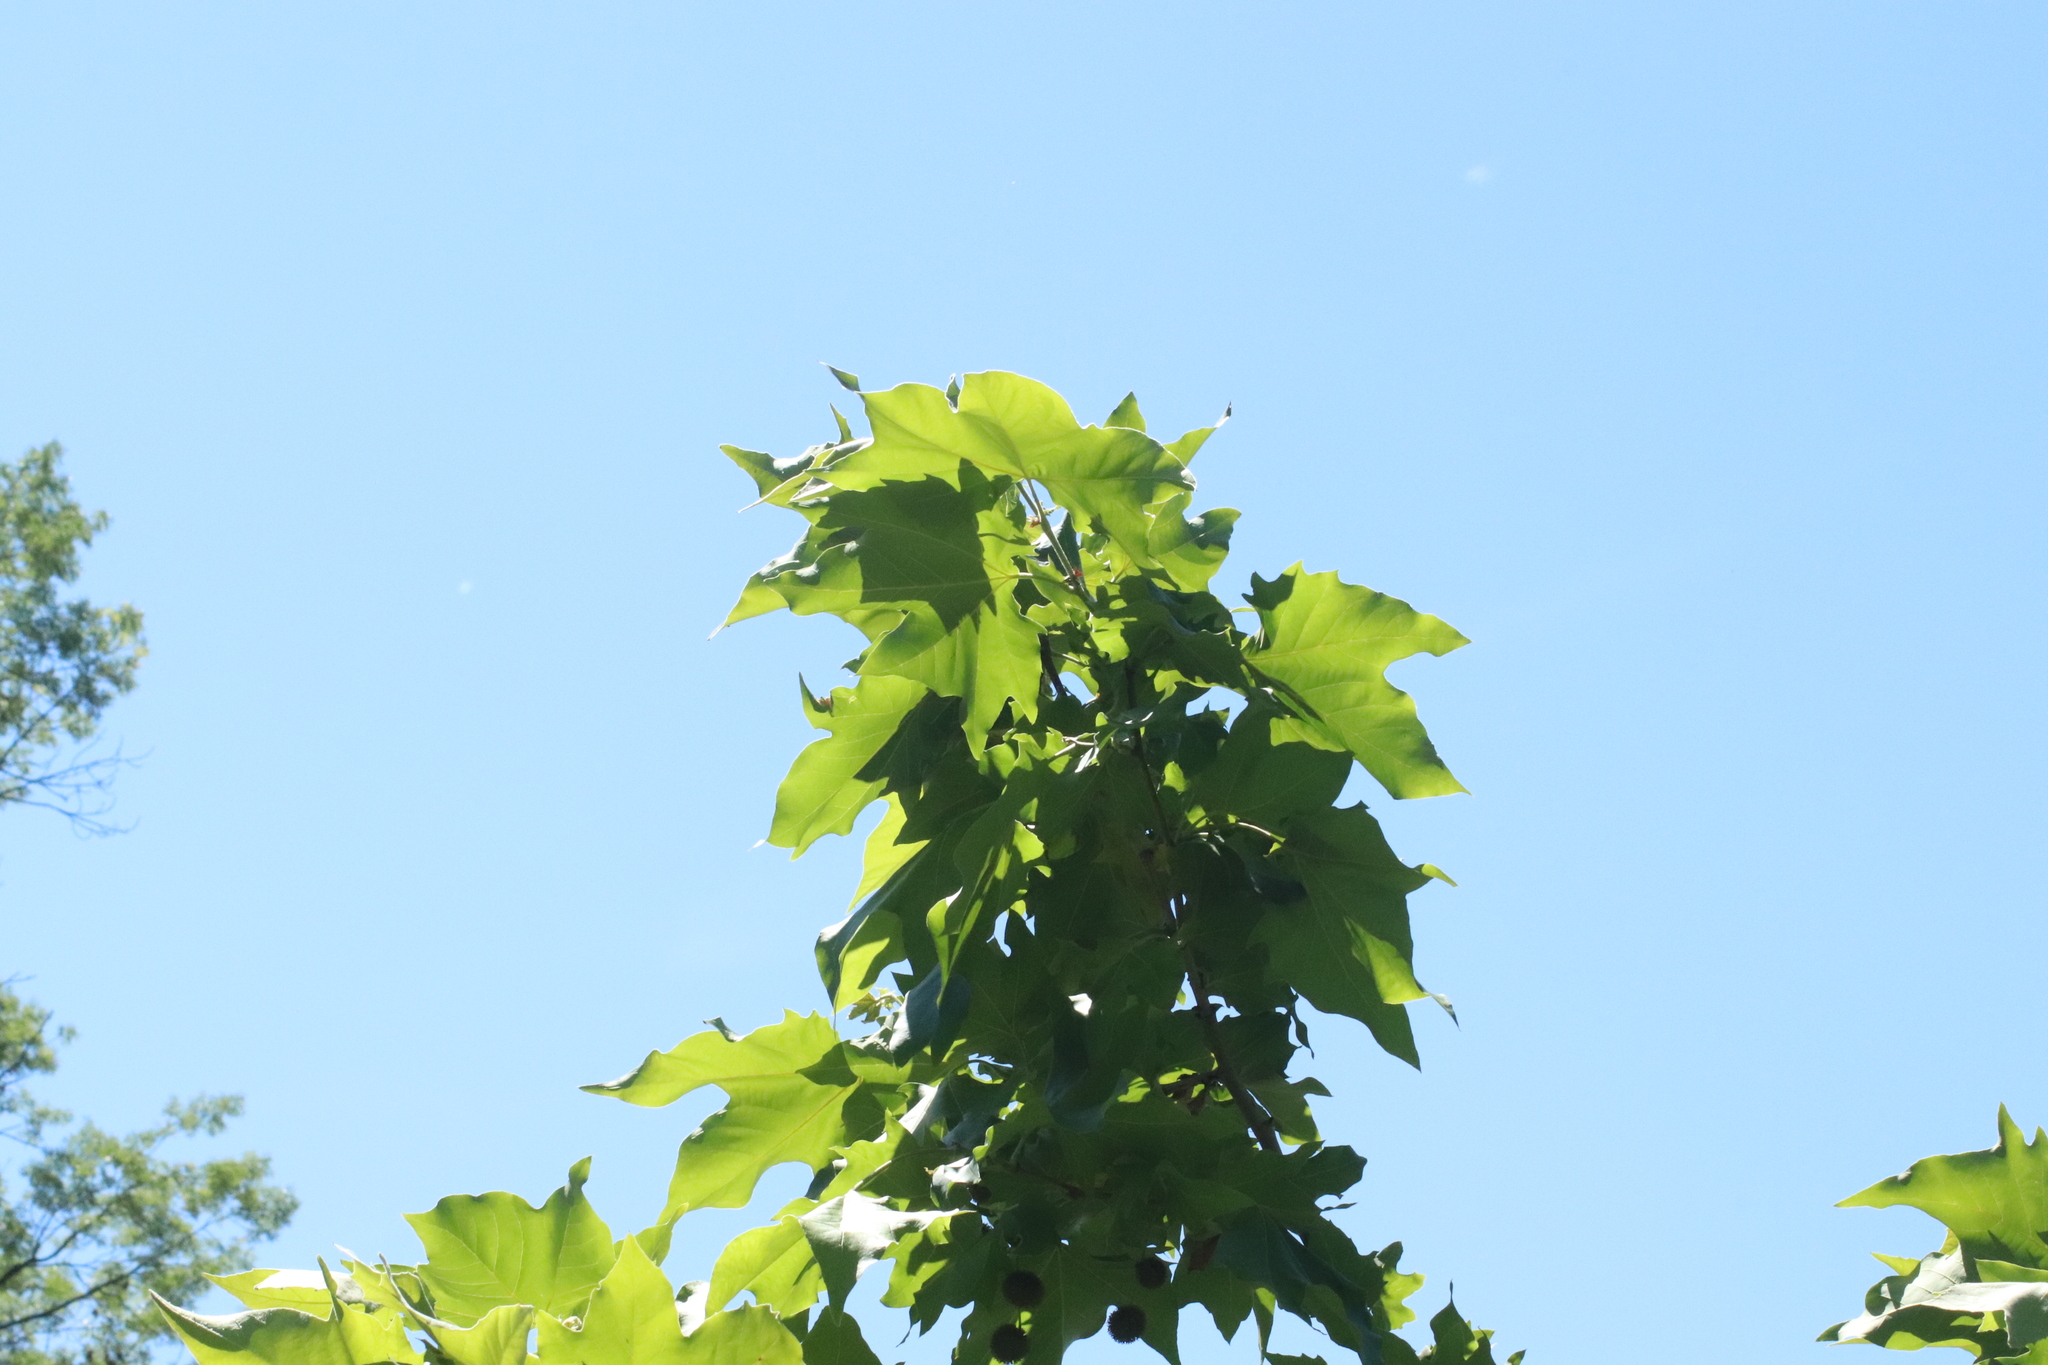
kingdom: Plantae
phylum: Tracheophyta
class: Magnoliopsida
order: Proteales
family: Platanaceae
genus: Platanus
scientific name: Platanus hispanica
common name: London plane
